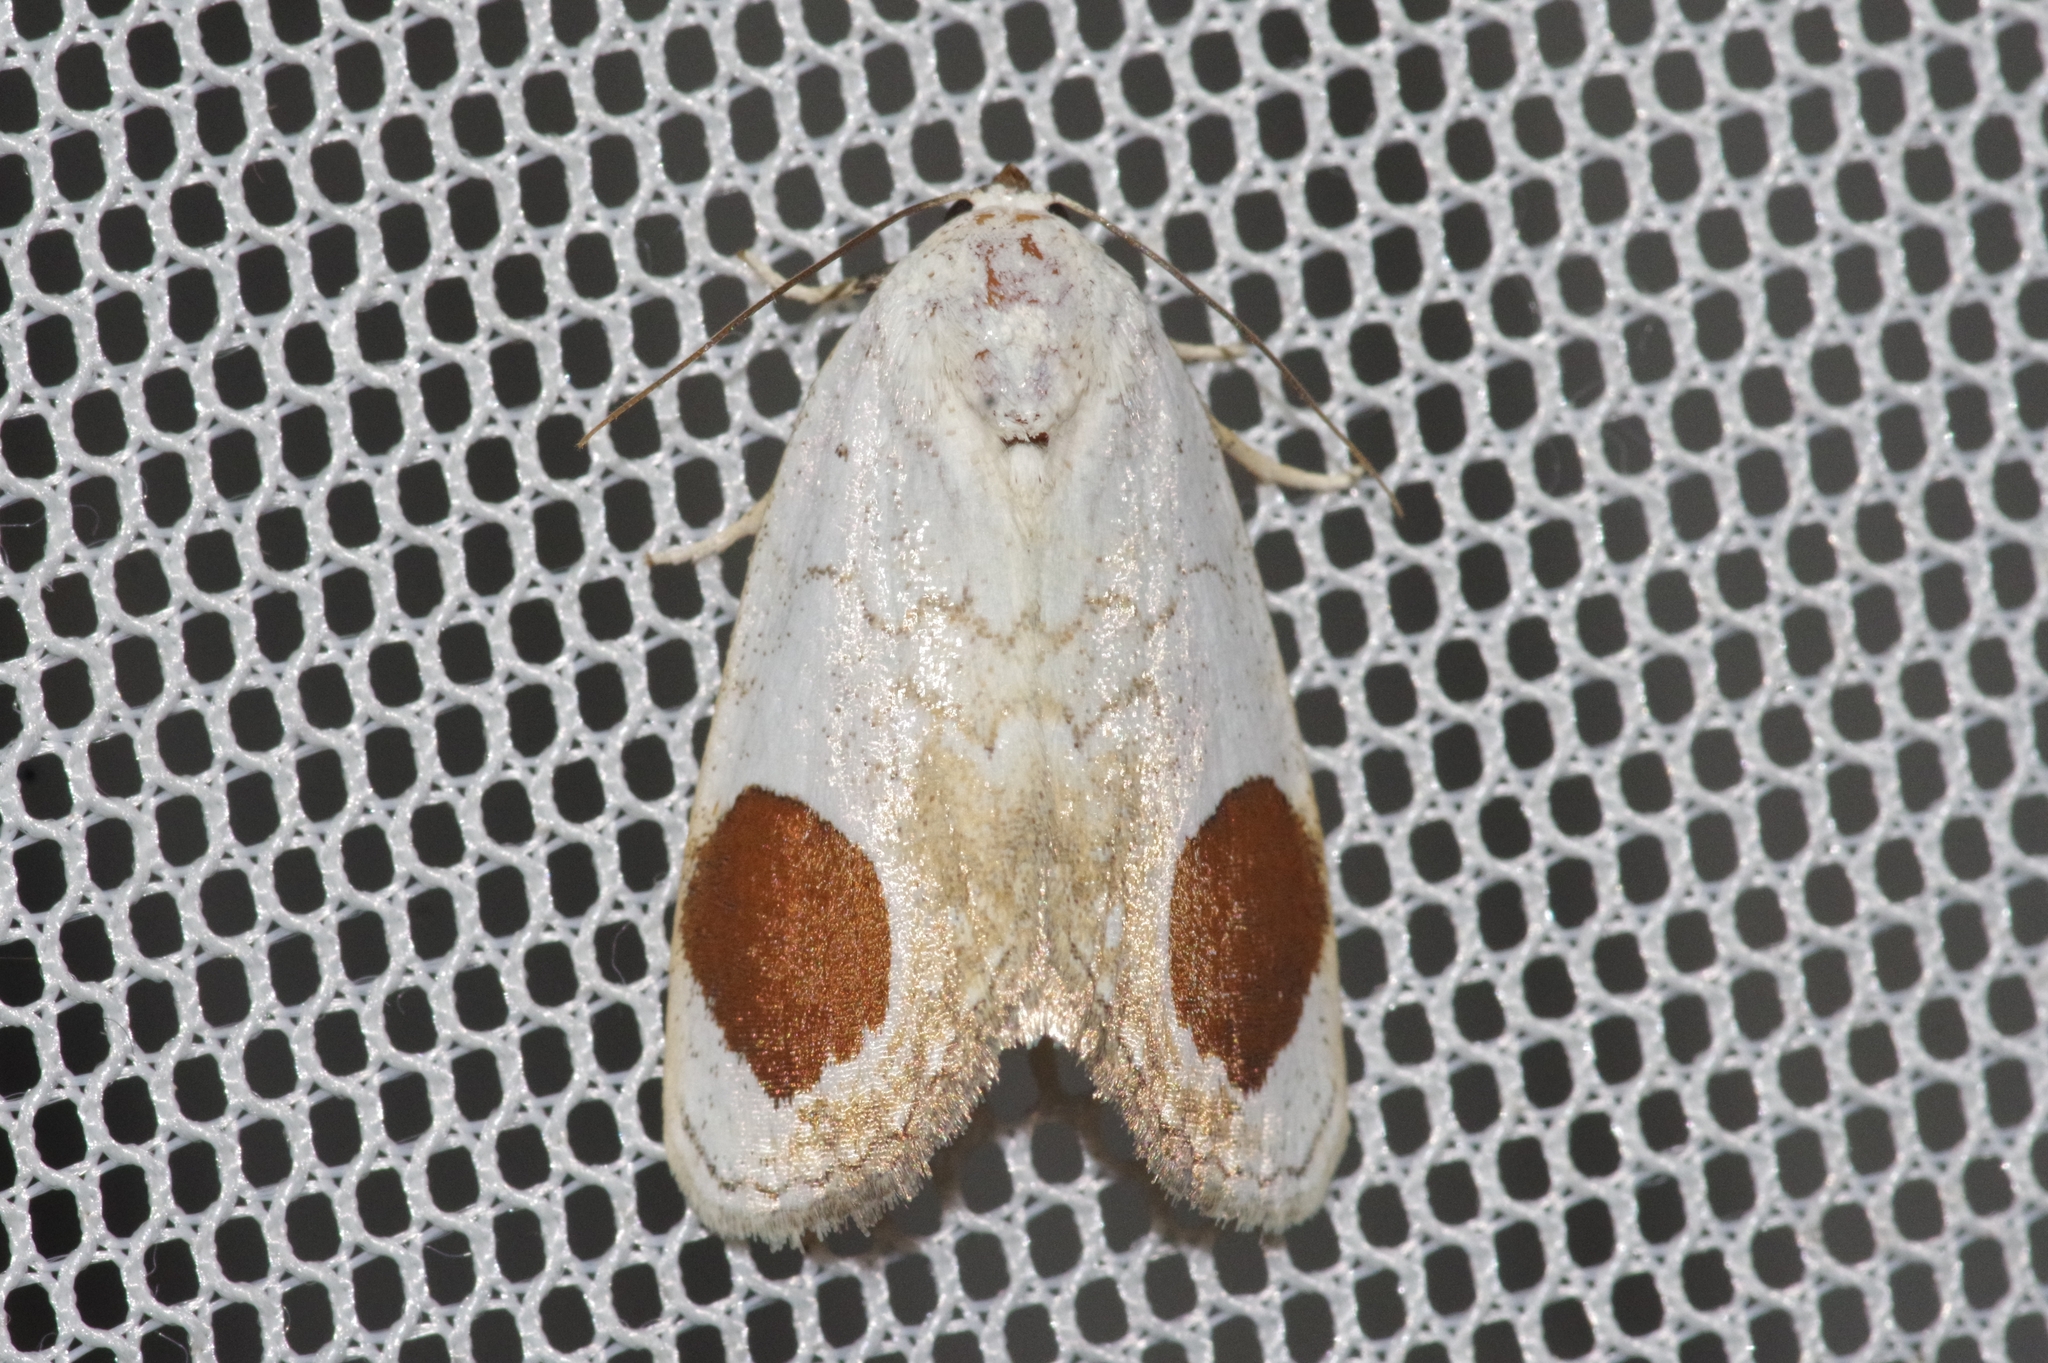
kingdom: Animalia
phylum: Arthropoda
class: Insecta
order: Lepidoptera
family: Noctuidae
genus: Sphragifera
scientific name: Sphragifera sigillata
